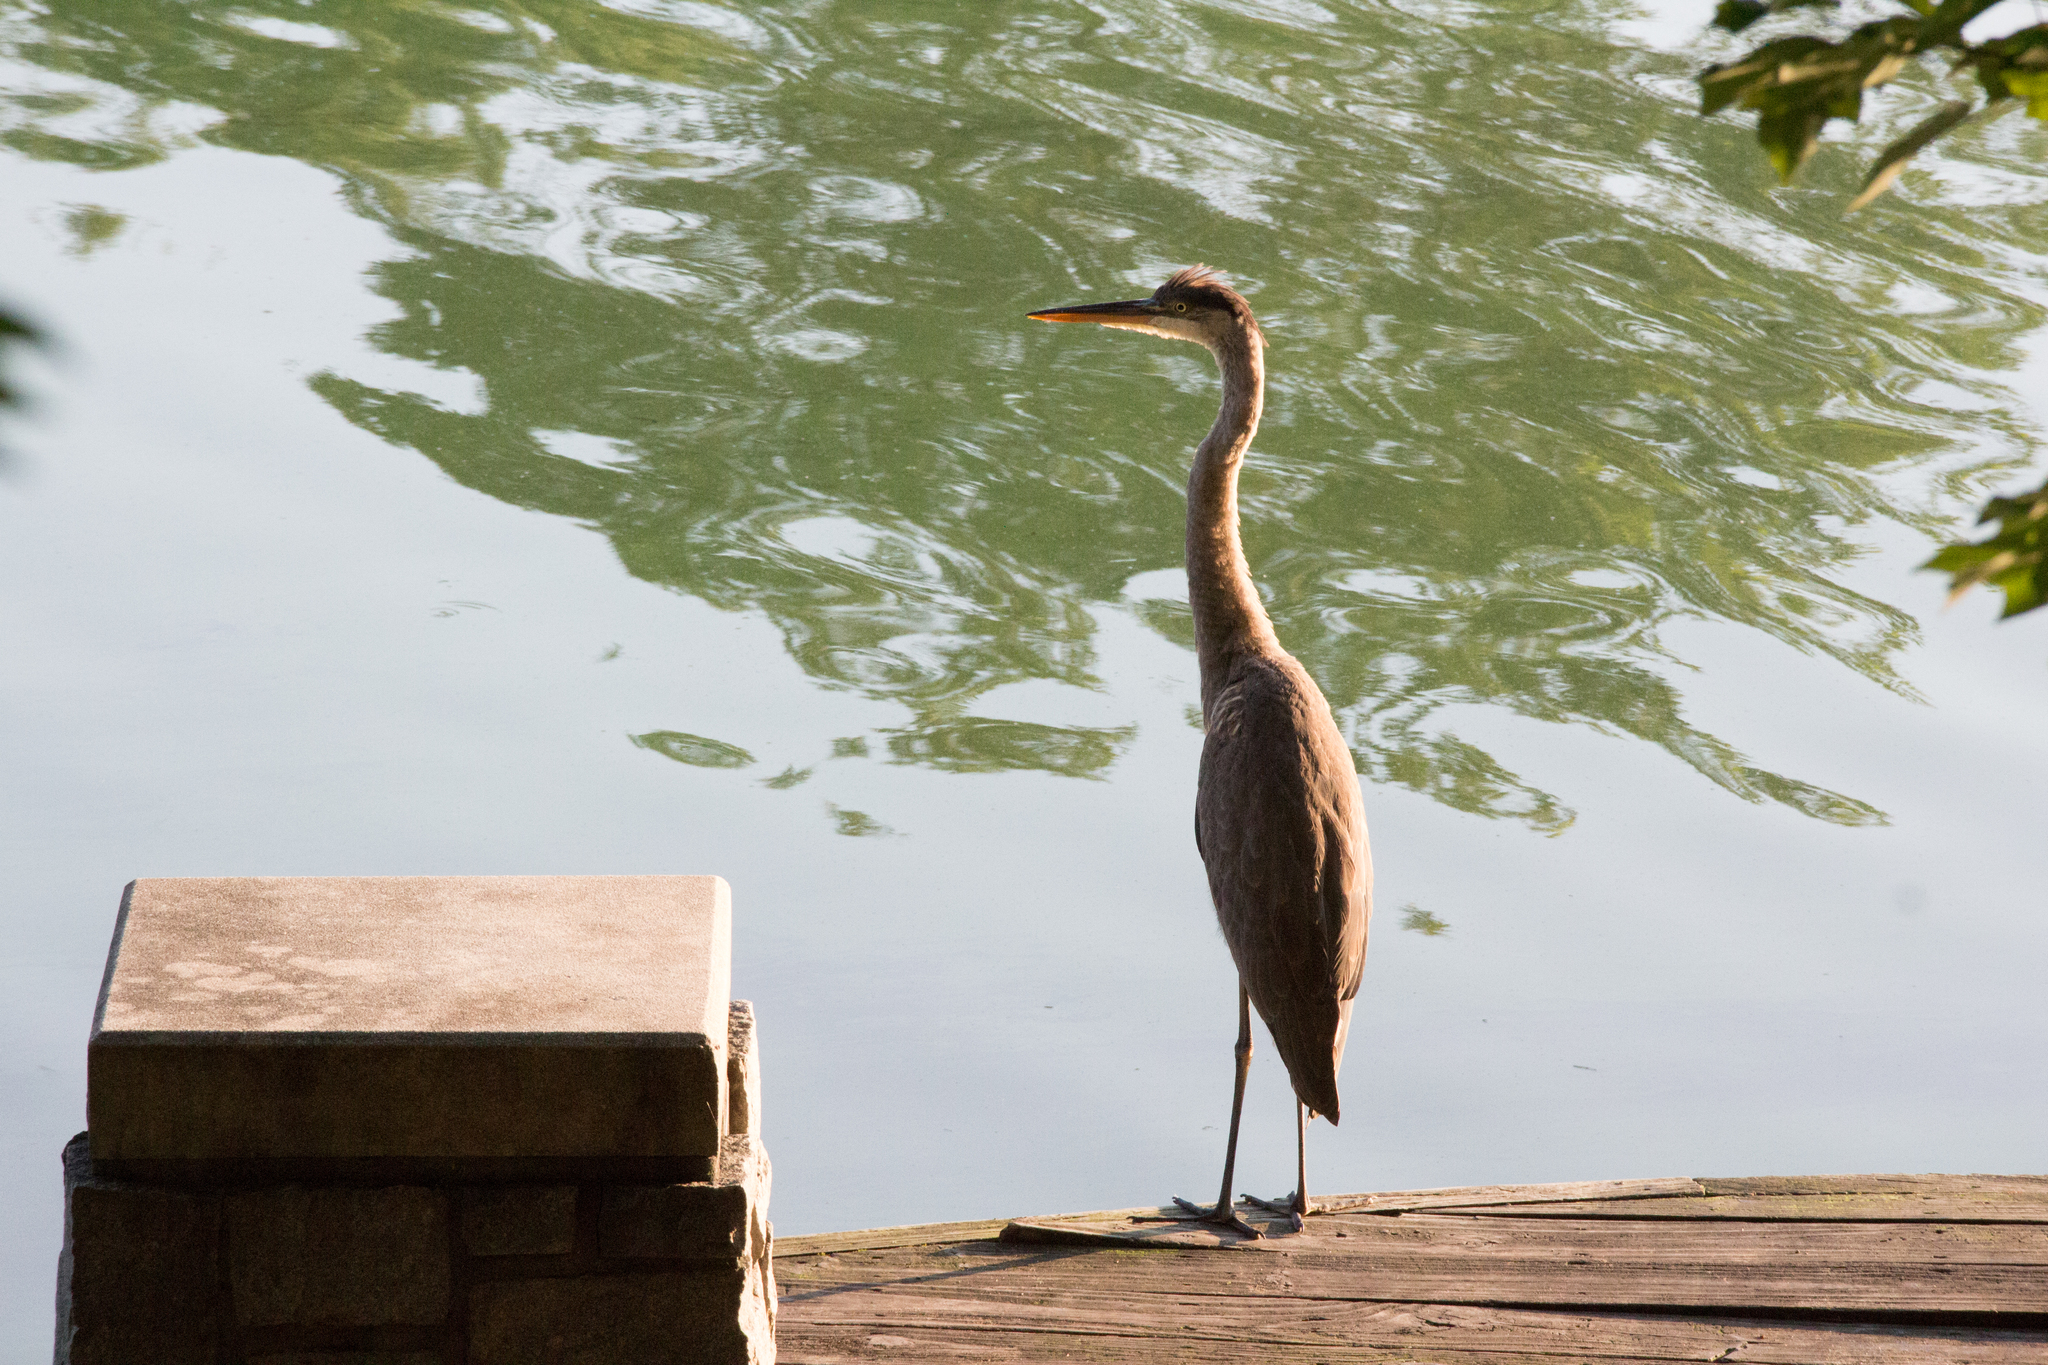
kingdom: Animalia
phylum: Chordata
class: Aves
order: Pelecaniformes
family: Ardeidae
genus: Ardea
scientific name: Ardea herodias
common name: Great blue heron
